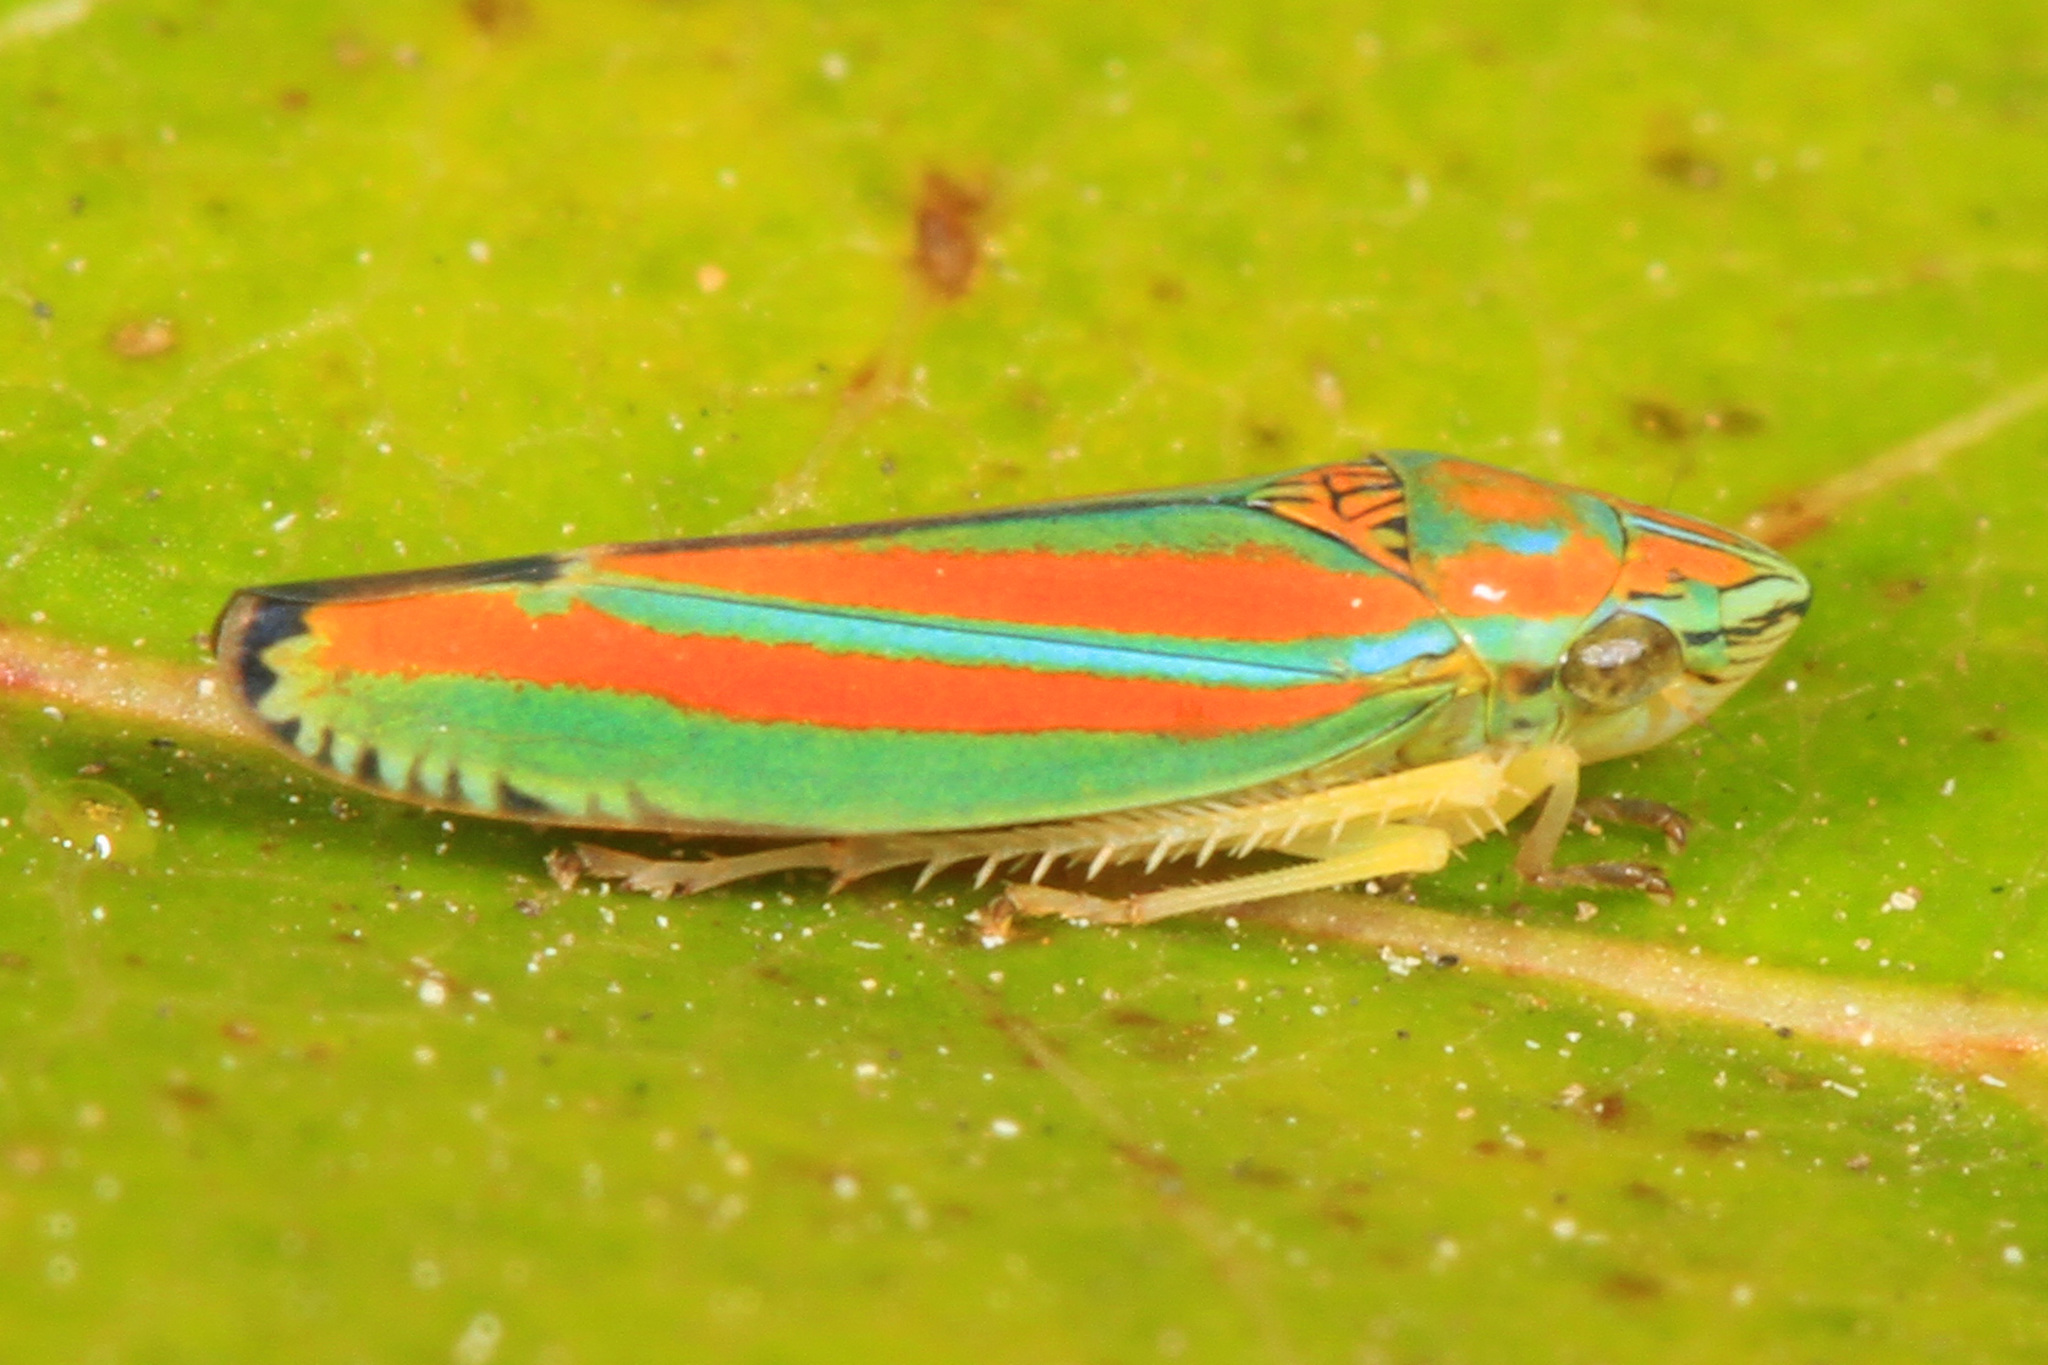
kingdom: Animalia
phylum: Arthropoda
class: Insecta
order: Hemiptera
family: Cicadellidae
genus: Graphocephala
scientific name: Graphocephala versuta
